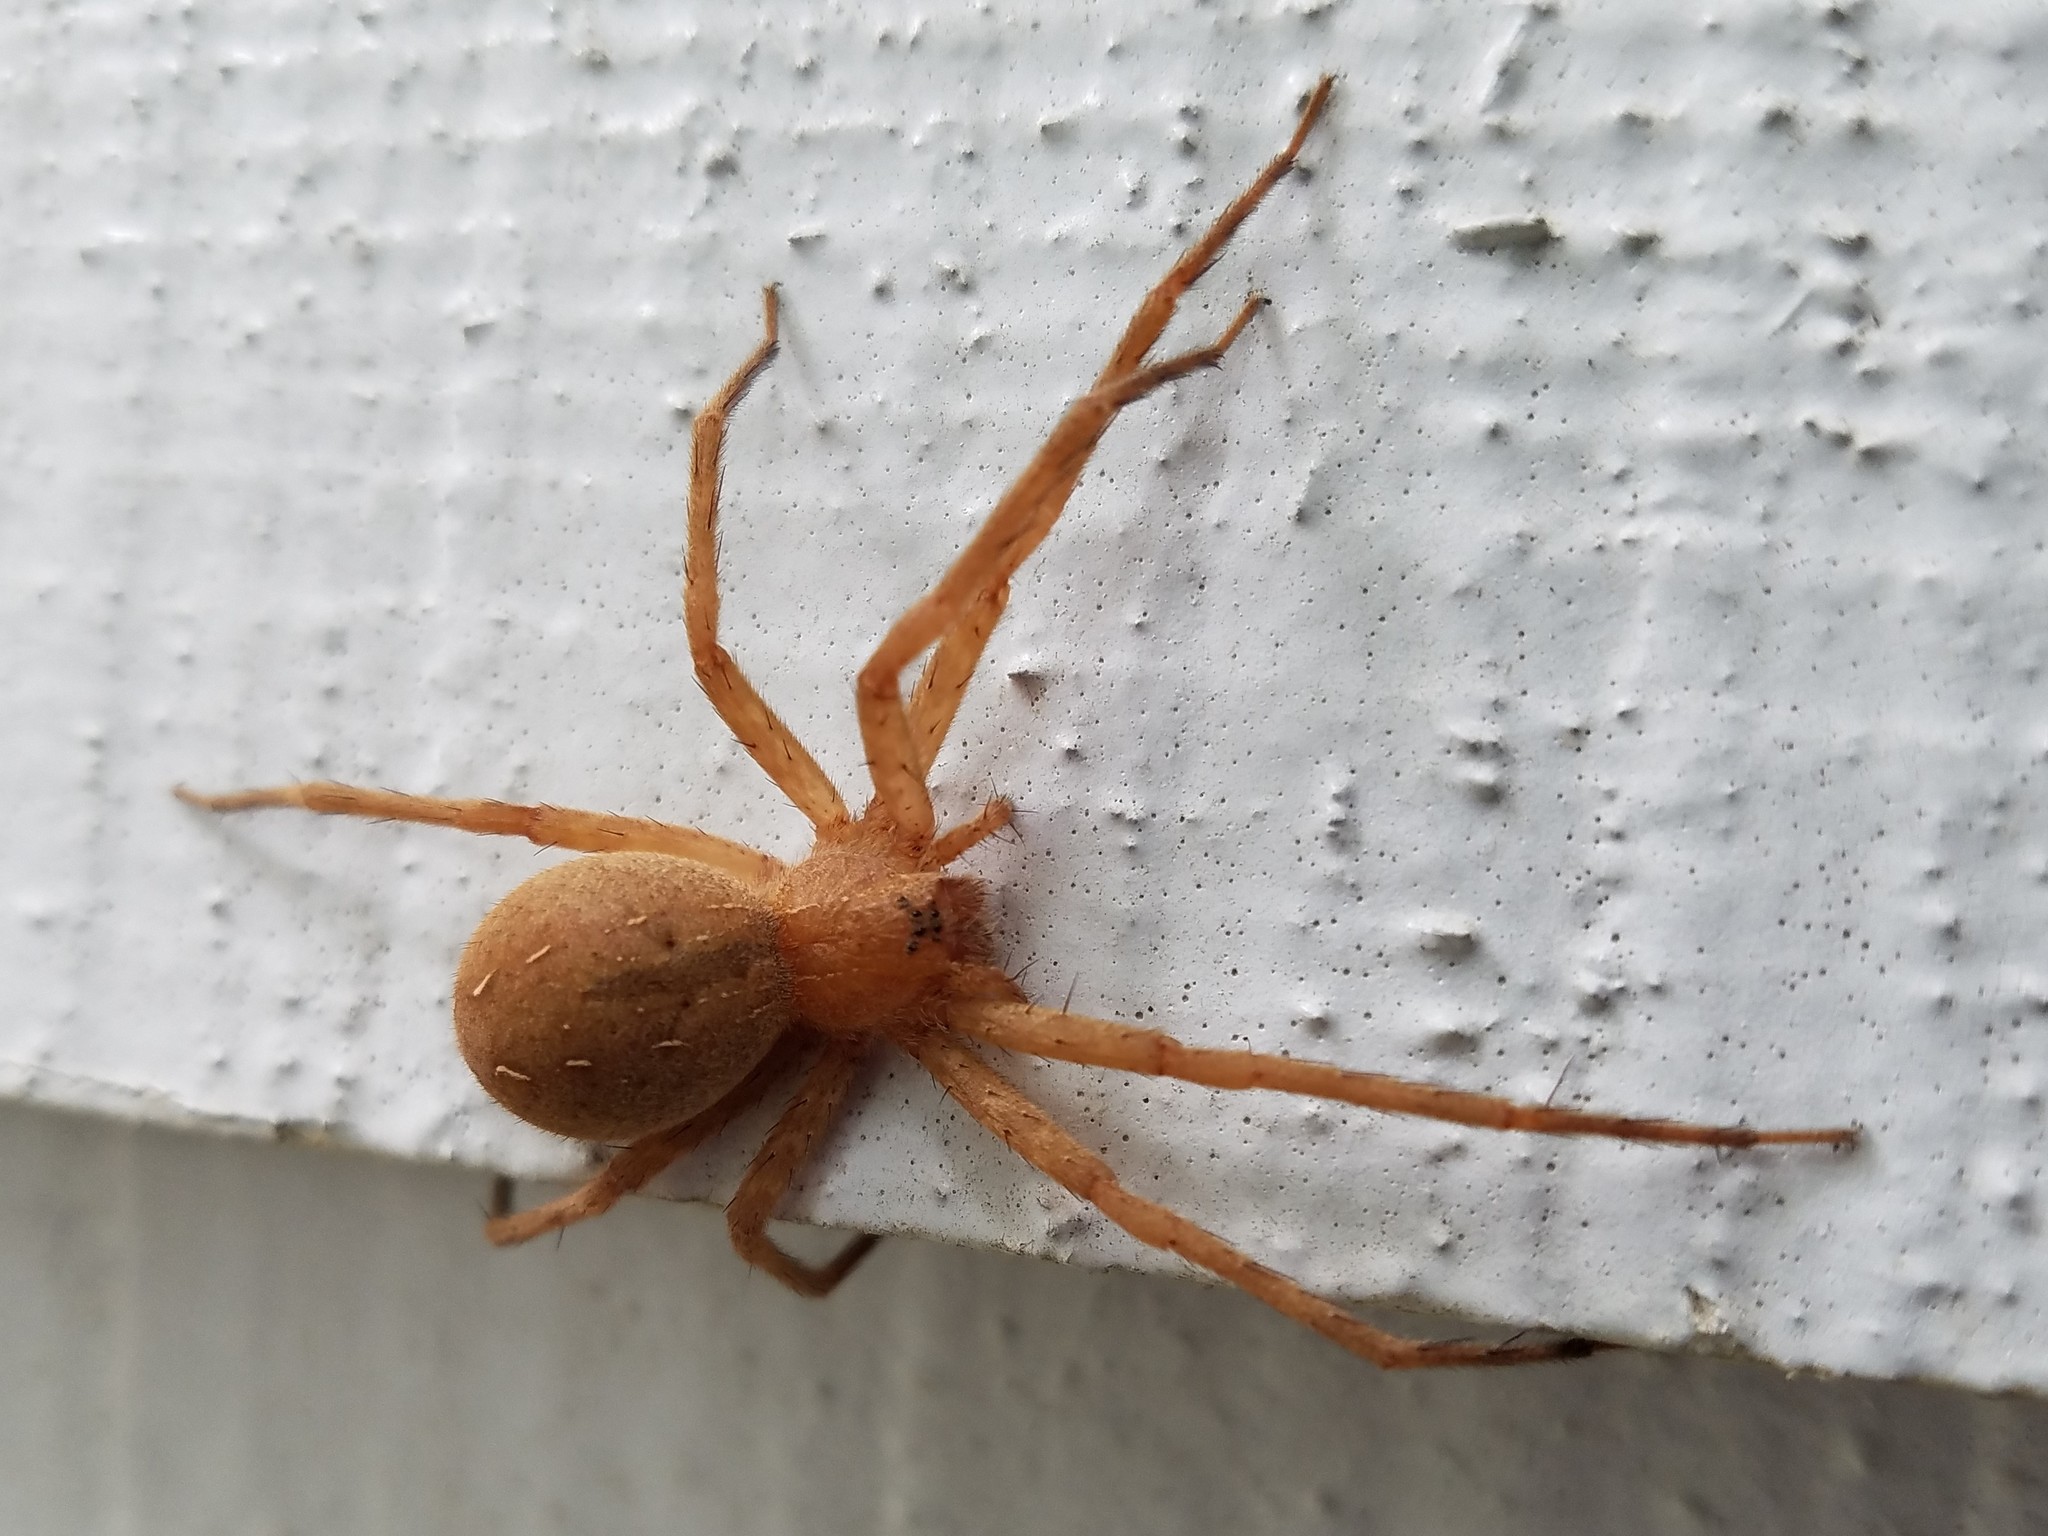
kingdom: Animalia
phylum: Arthropoda
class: Arachnida
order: Araneae
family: Pisauridae
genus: Pisaurina
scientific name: Pisaurina mira
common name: American nursery web spider
